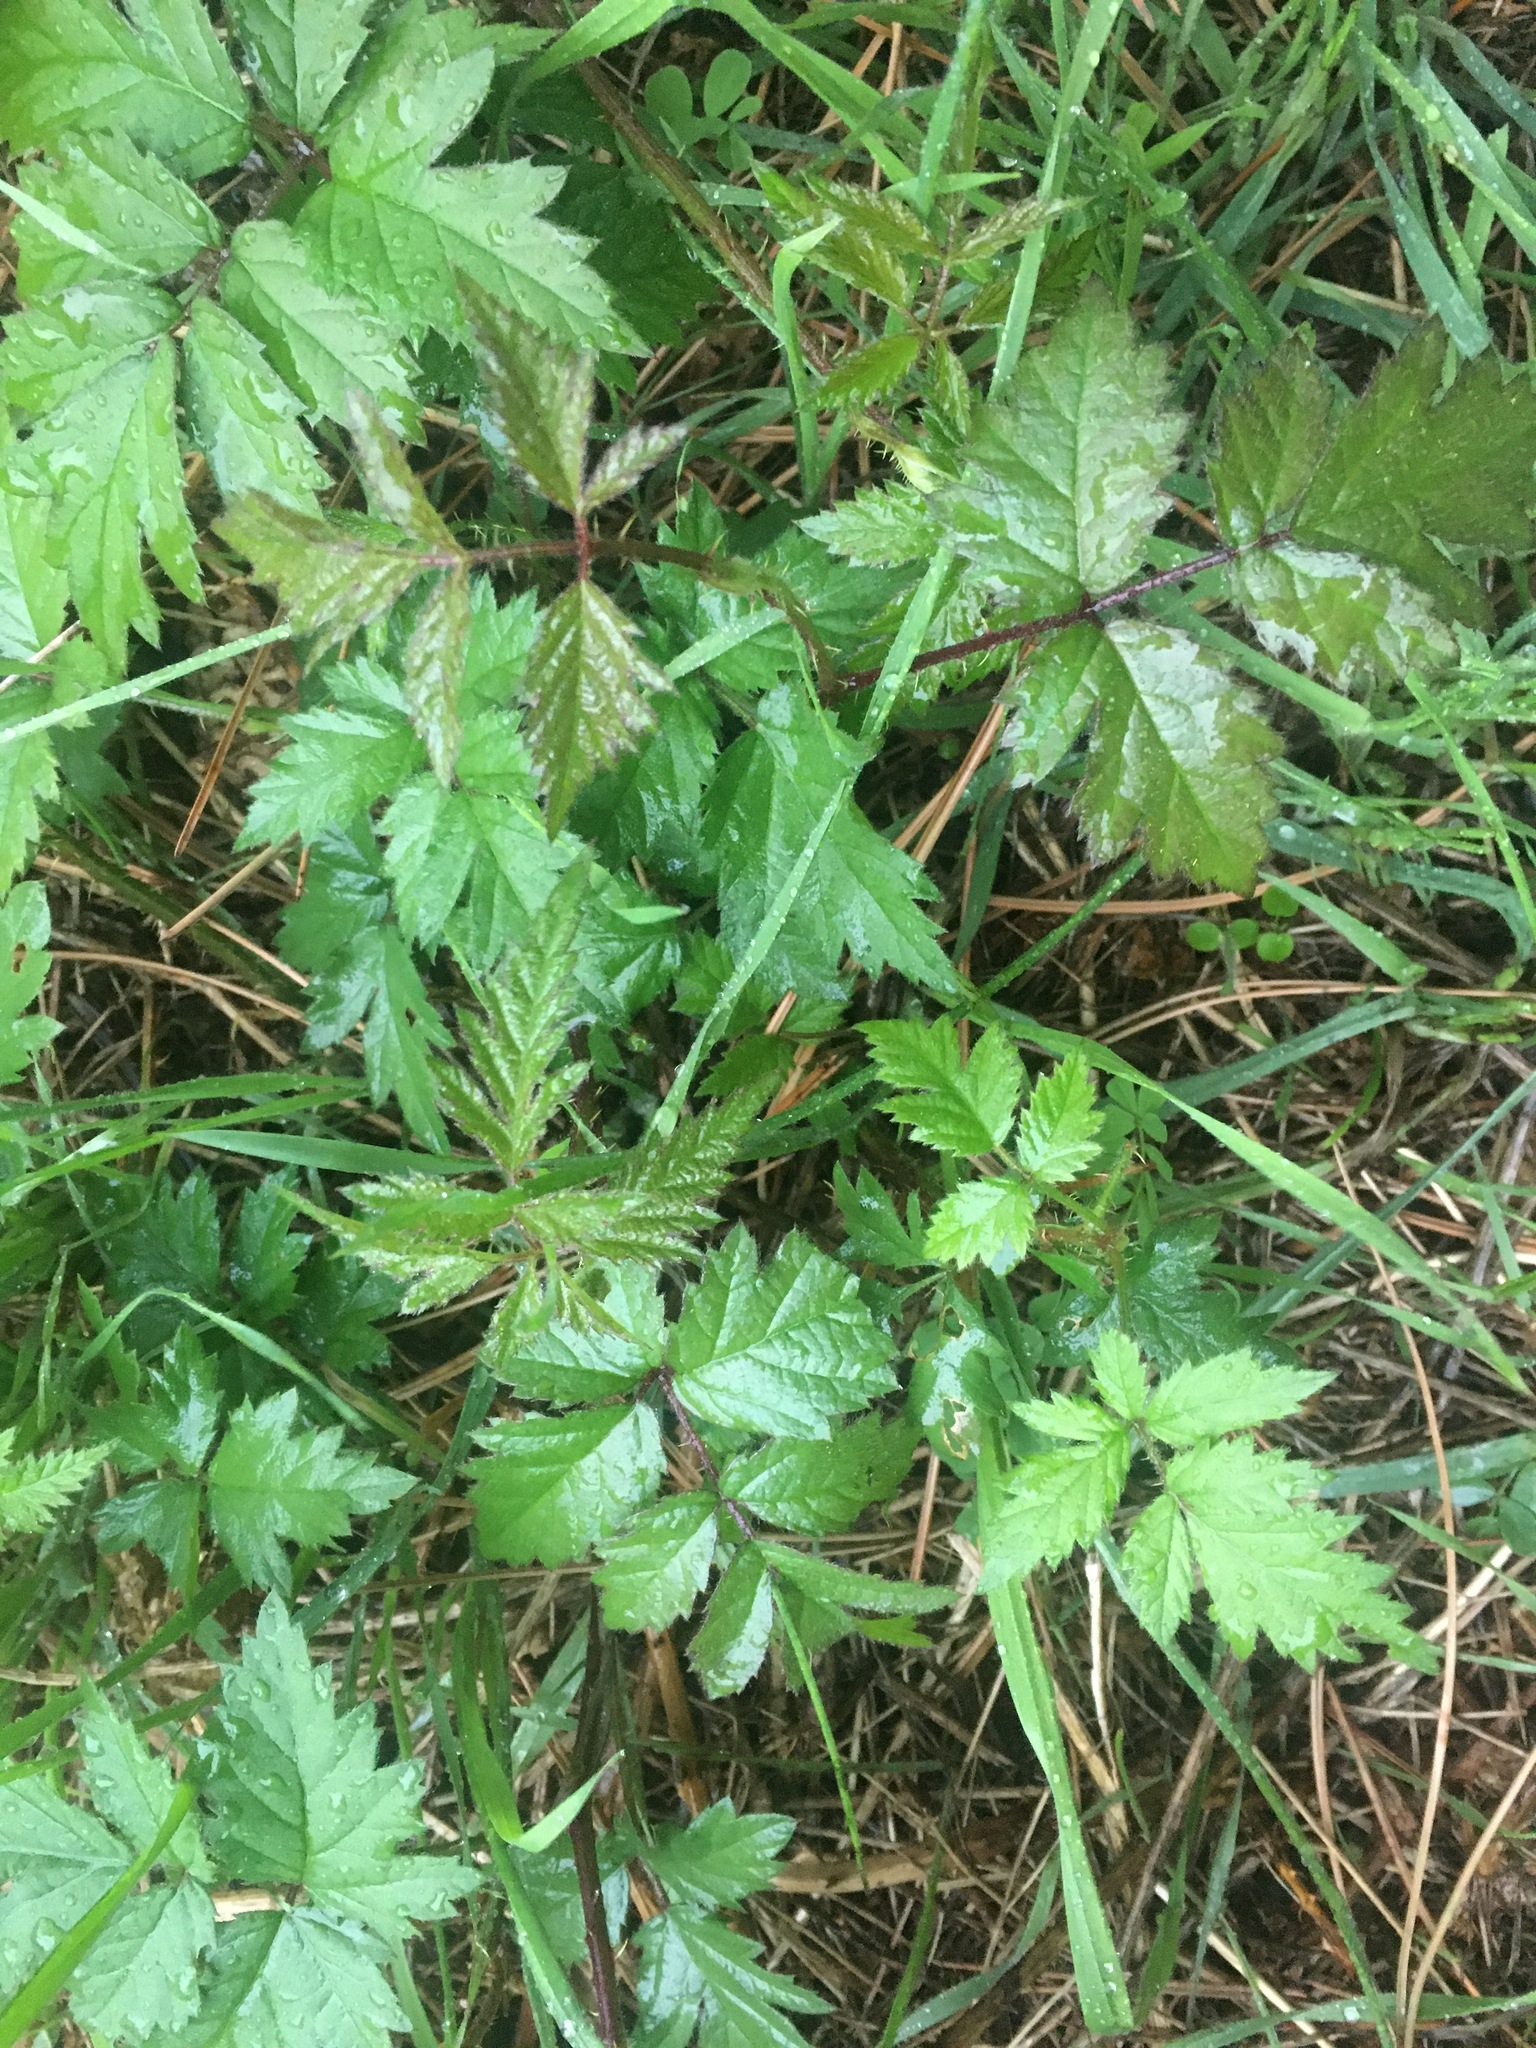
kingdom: Plantae
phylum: Tracheophyta
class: Magnoliopsida
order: Rosales
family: Rosaceae
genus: Rubus
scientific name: Rubus laciniatus
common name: Evergreen blackberry
